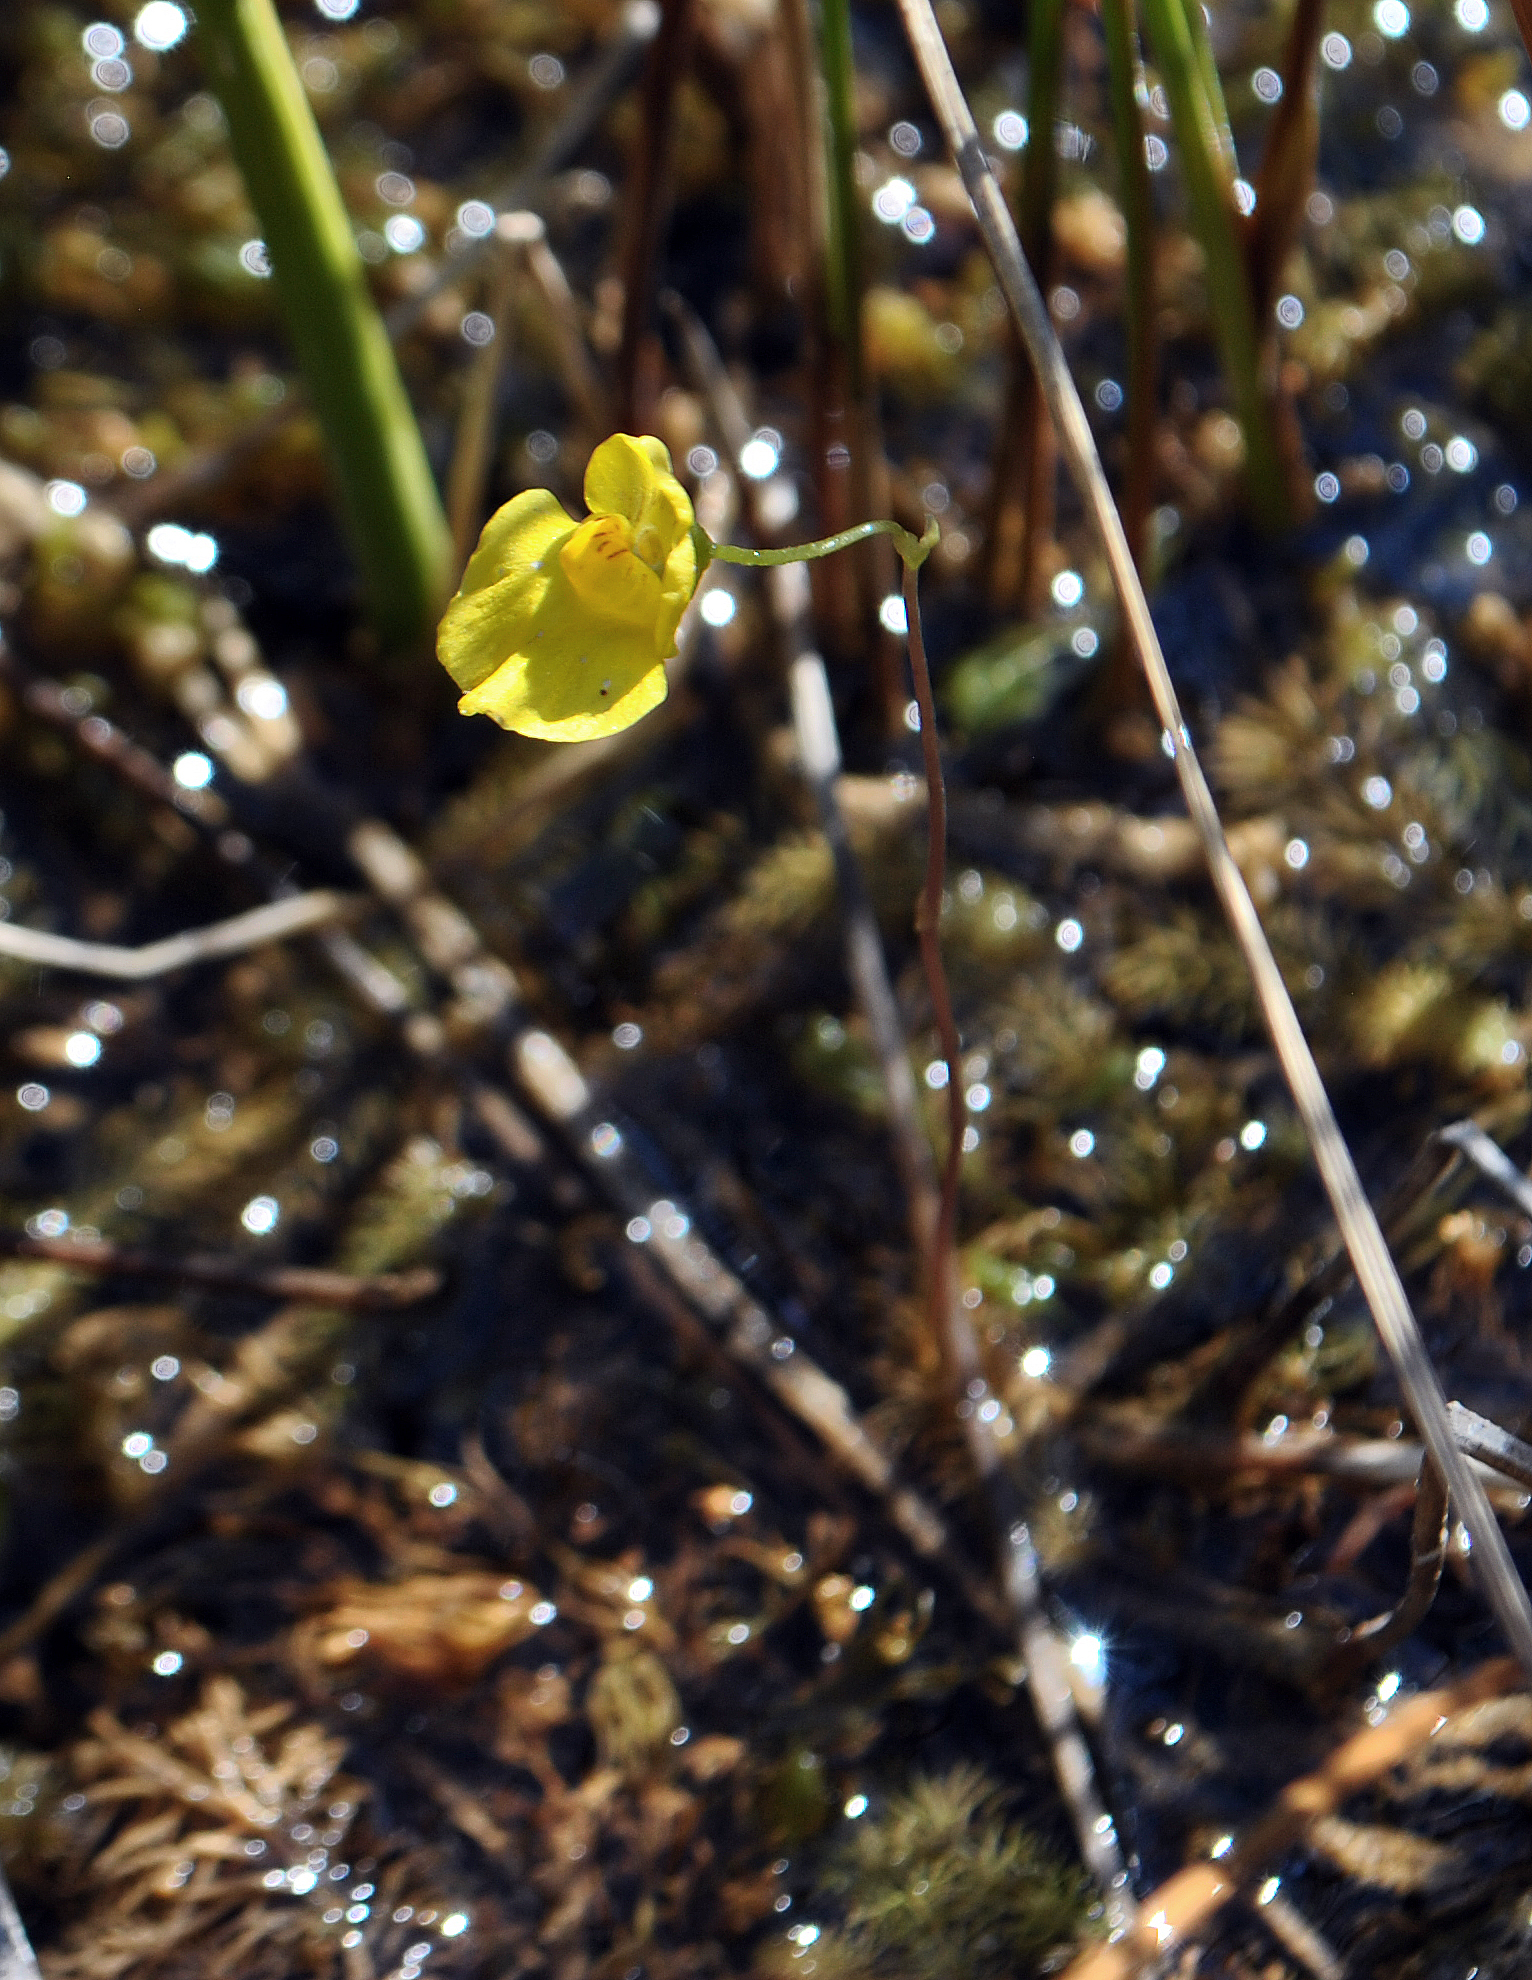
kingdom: Plantae
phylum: Tracheophyta
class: Magnoliopsida
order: Lamiales
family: Lentibulariaceae
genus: Utricularia
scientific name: Utricularia intermedia
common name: Intermediate bladderwort
